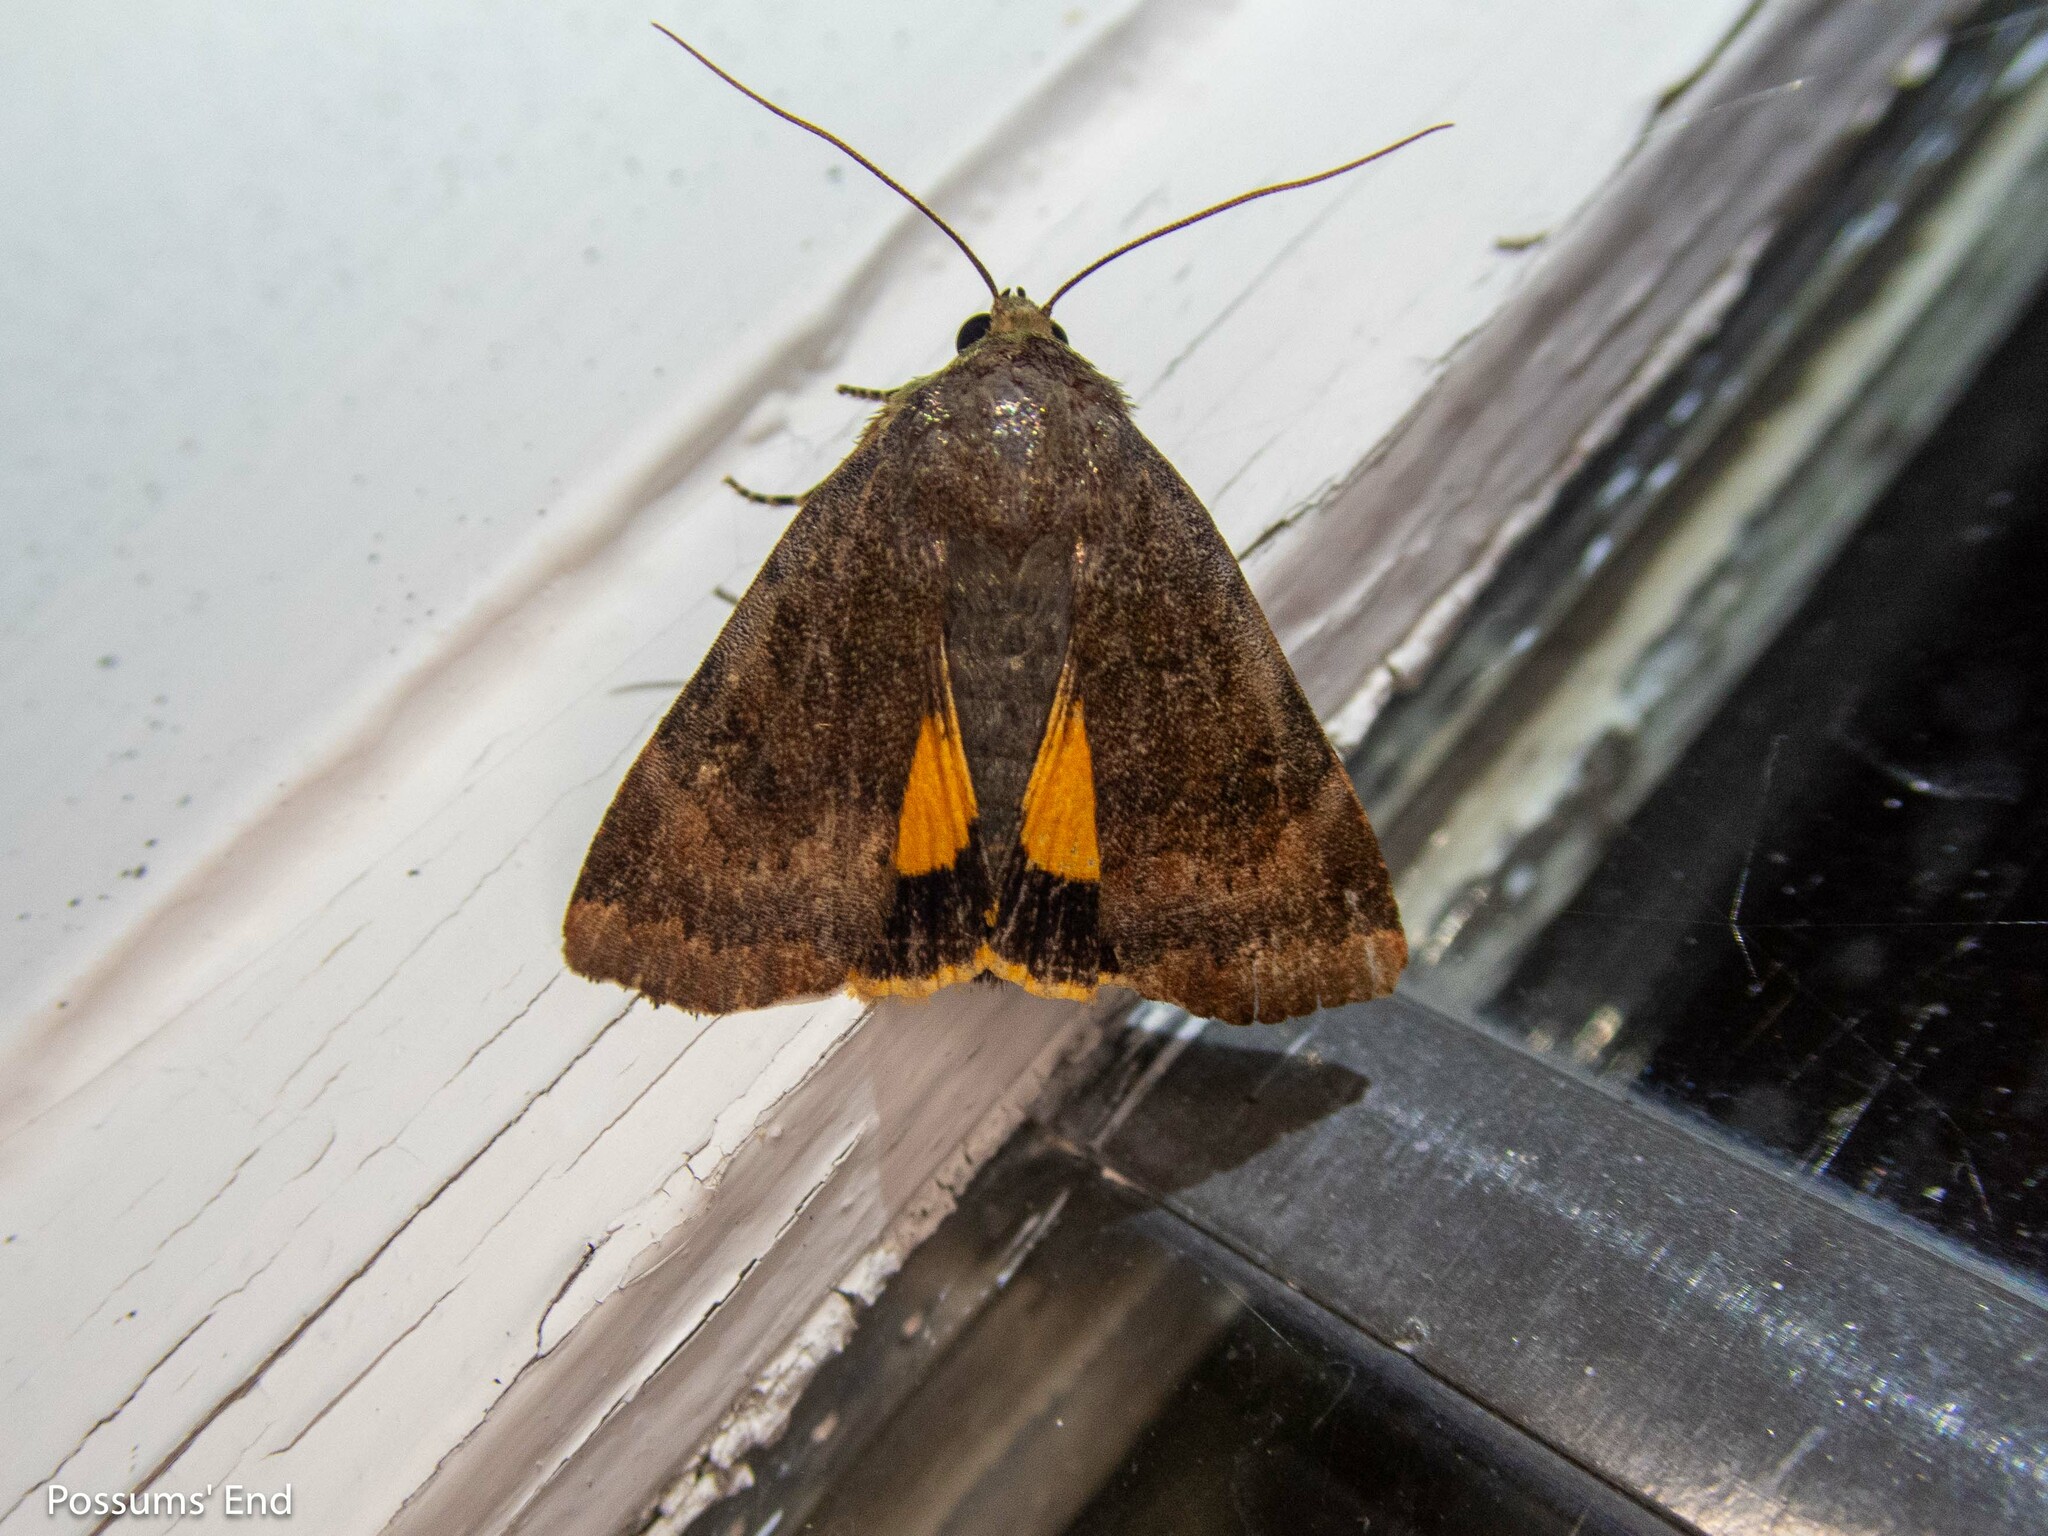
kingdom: Animalia
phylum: Arthropoda
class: Insecta
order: Lepidoptera
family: Noctuidae
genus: Noctua
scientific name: Noctua fimbriata
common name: Broad-bordered yellow underwing
